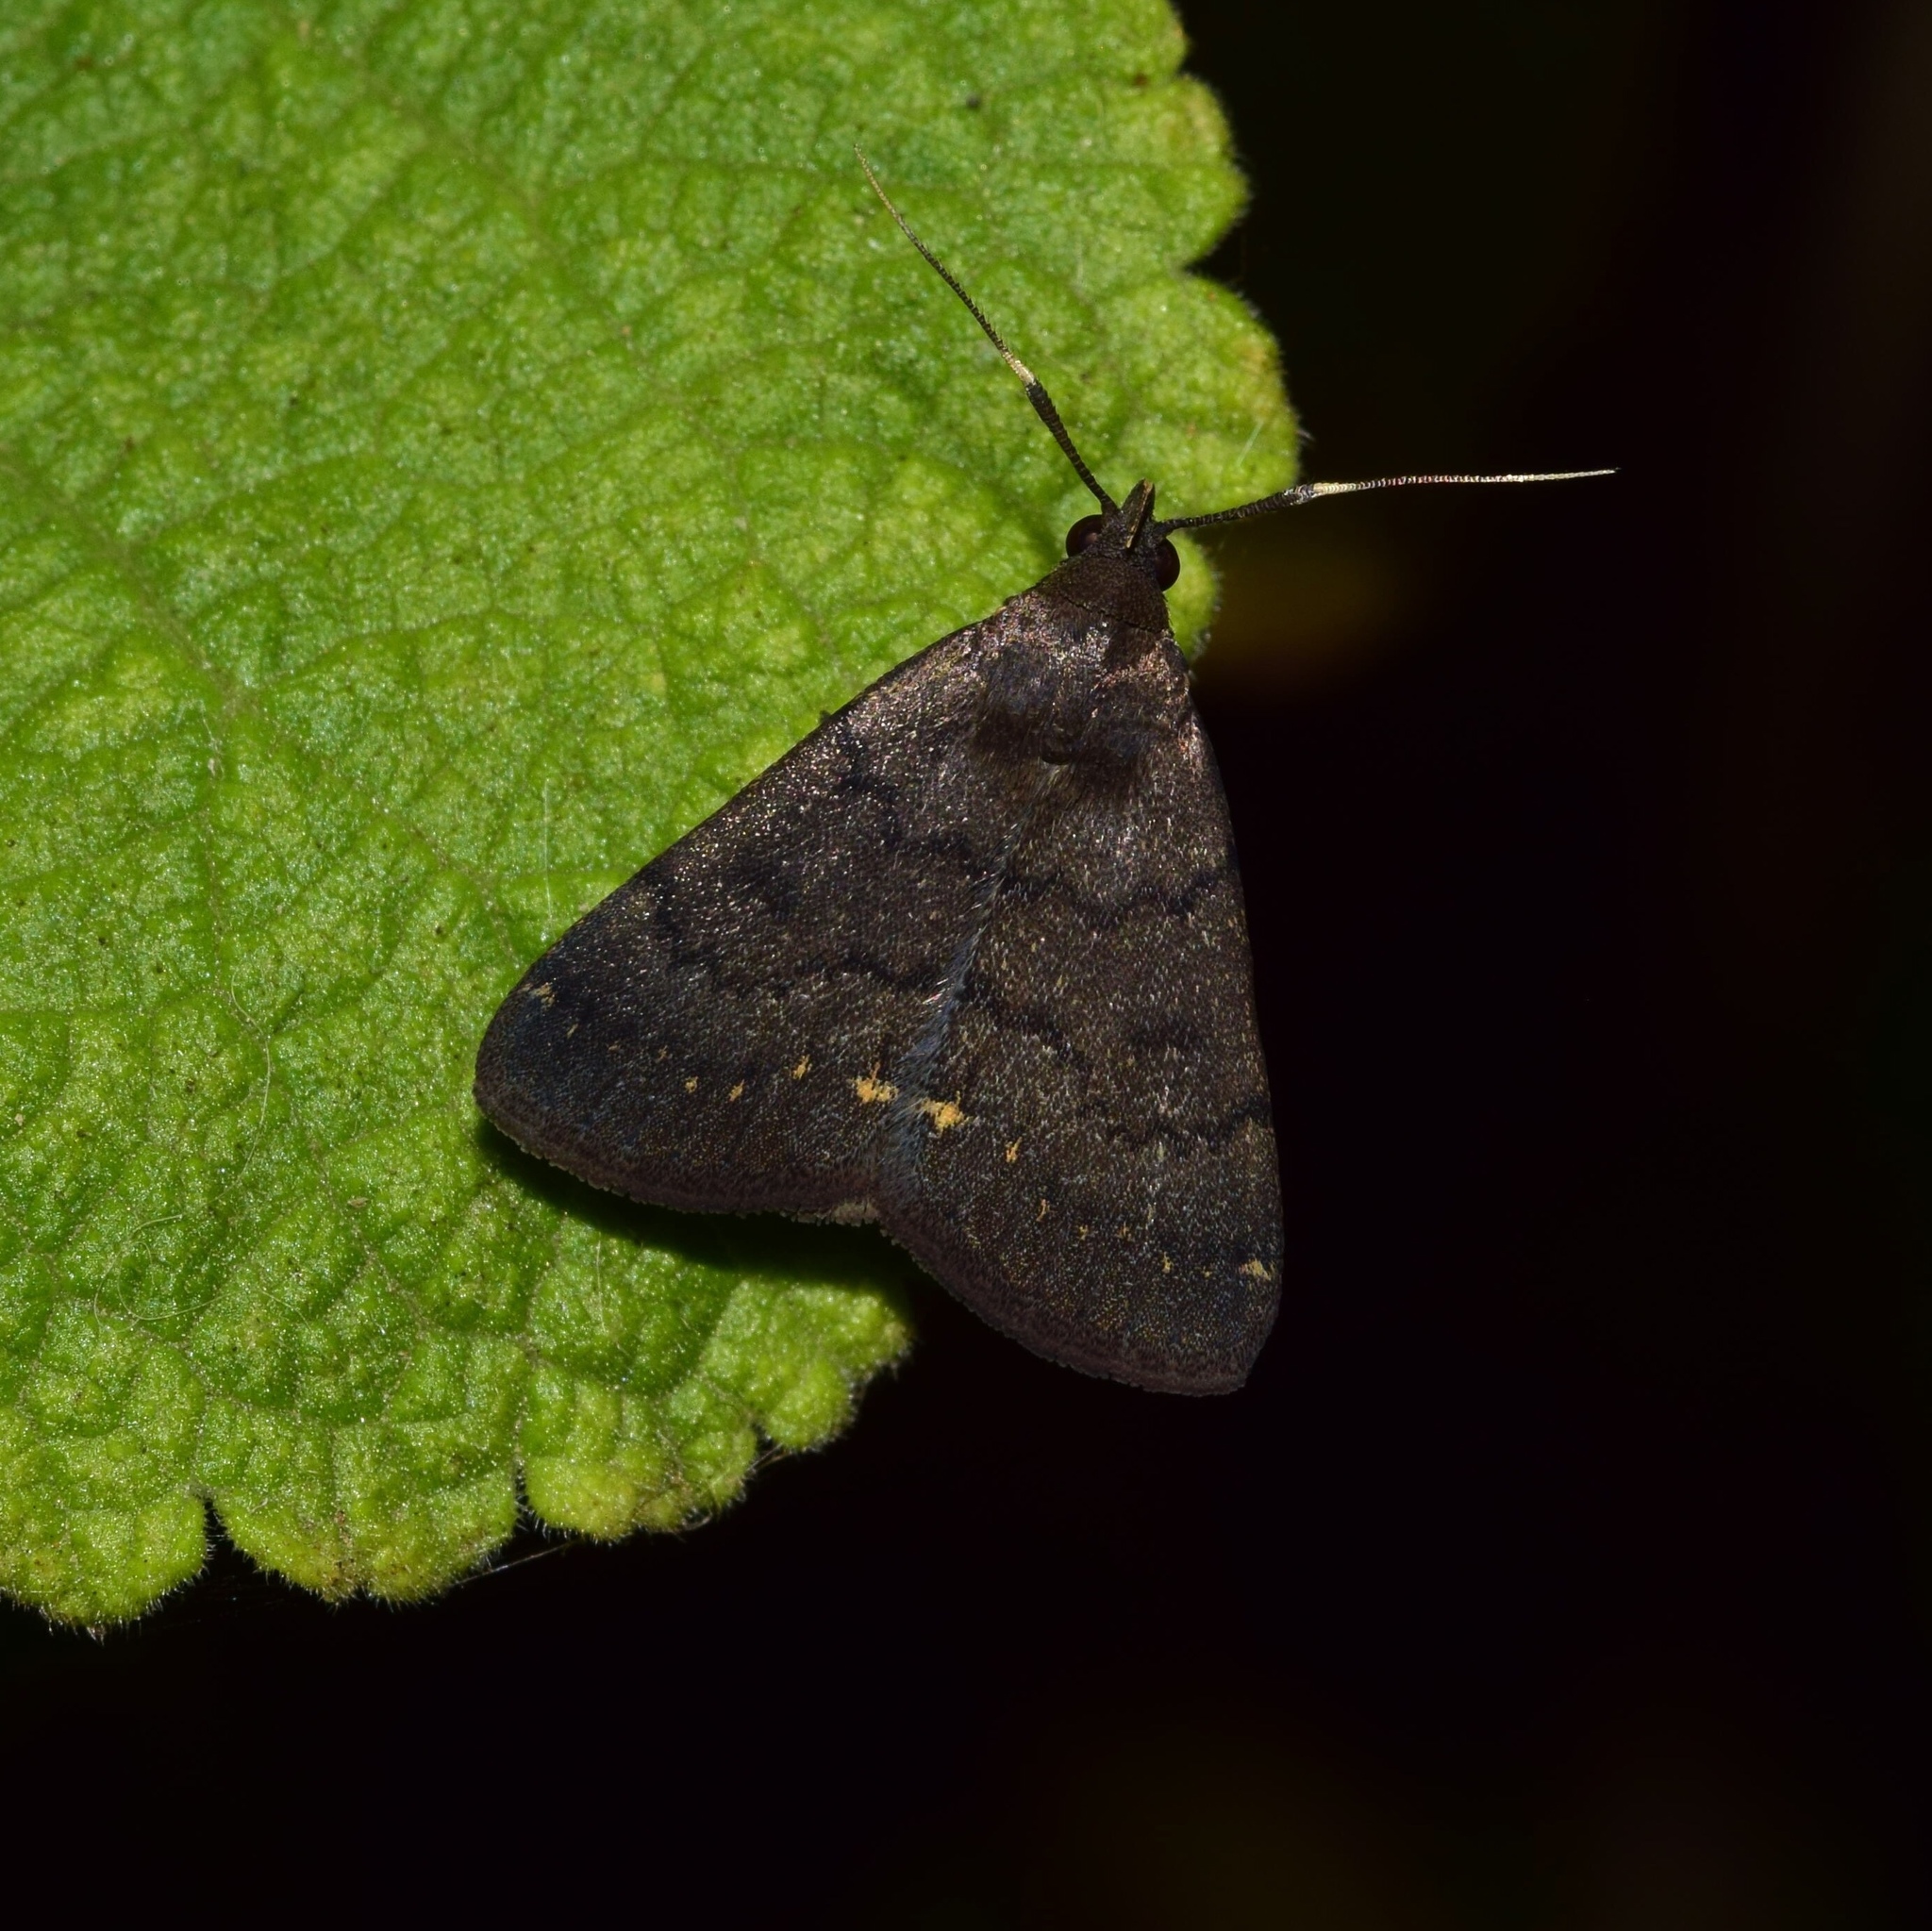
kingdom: Animalia
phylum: Arthropoda
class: Insecta
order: Lepidoptera
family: Erebidae
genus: Nodaria
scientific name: Nodaria nodosalis
